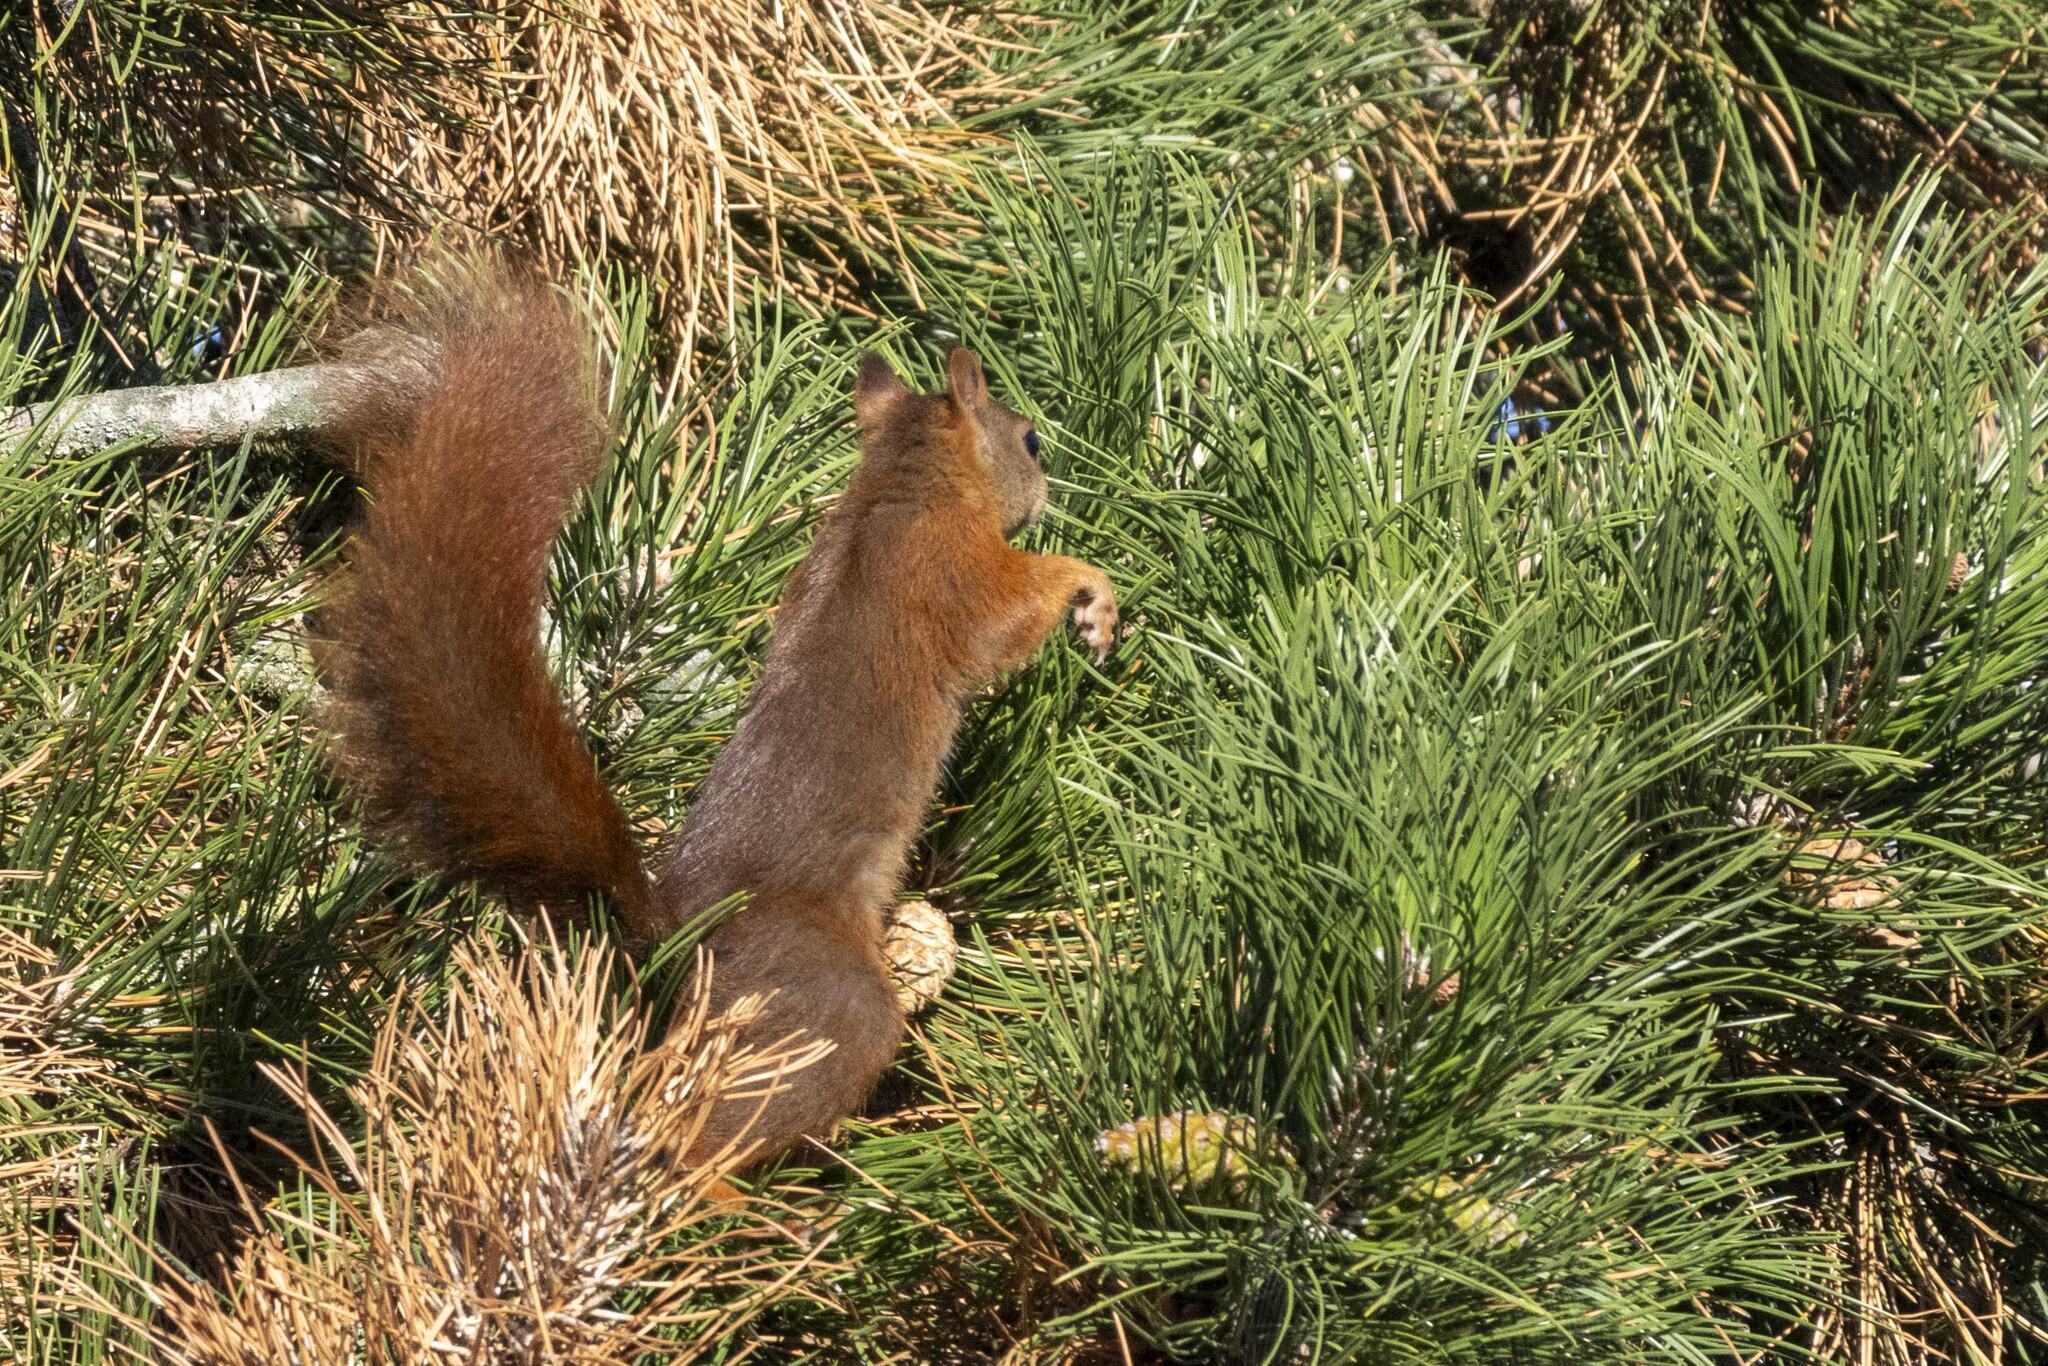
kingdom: Animalia
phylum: Chordata
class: Mammalia
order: Rodentia
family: Sciuridae
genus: Sciurus
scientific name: Sciurus vulgaris
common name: Eurasian red squirrel
